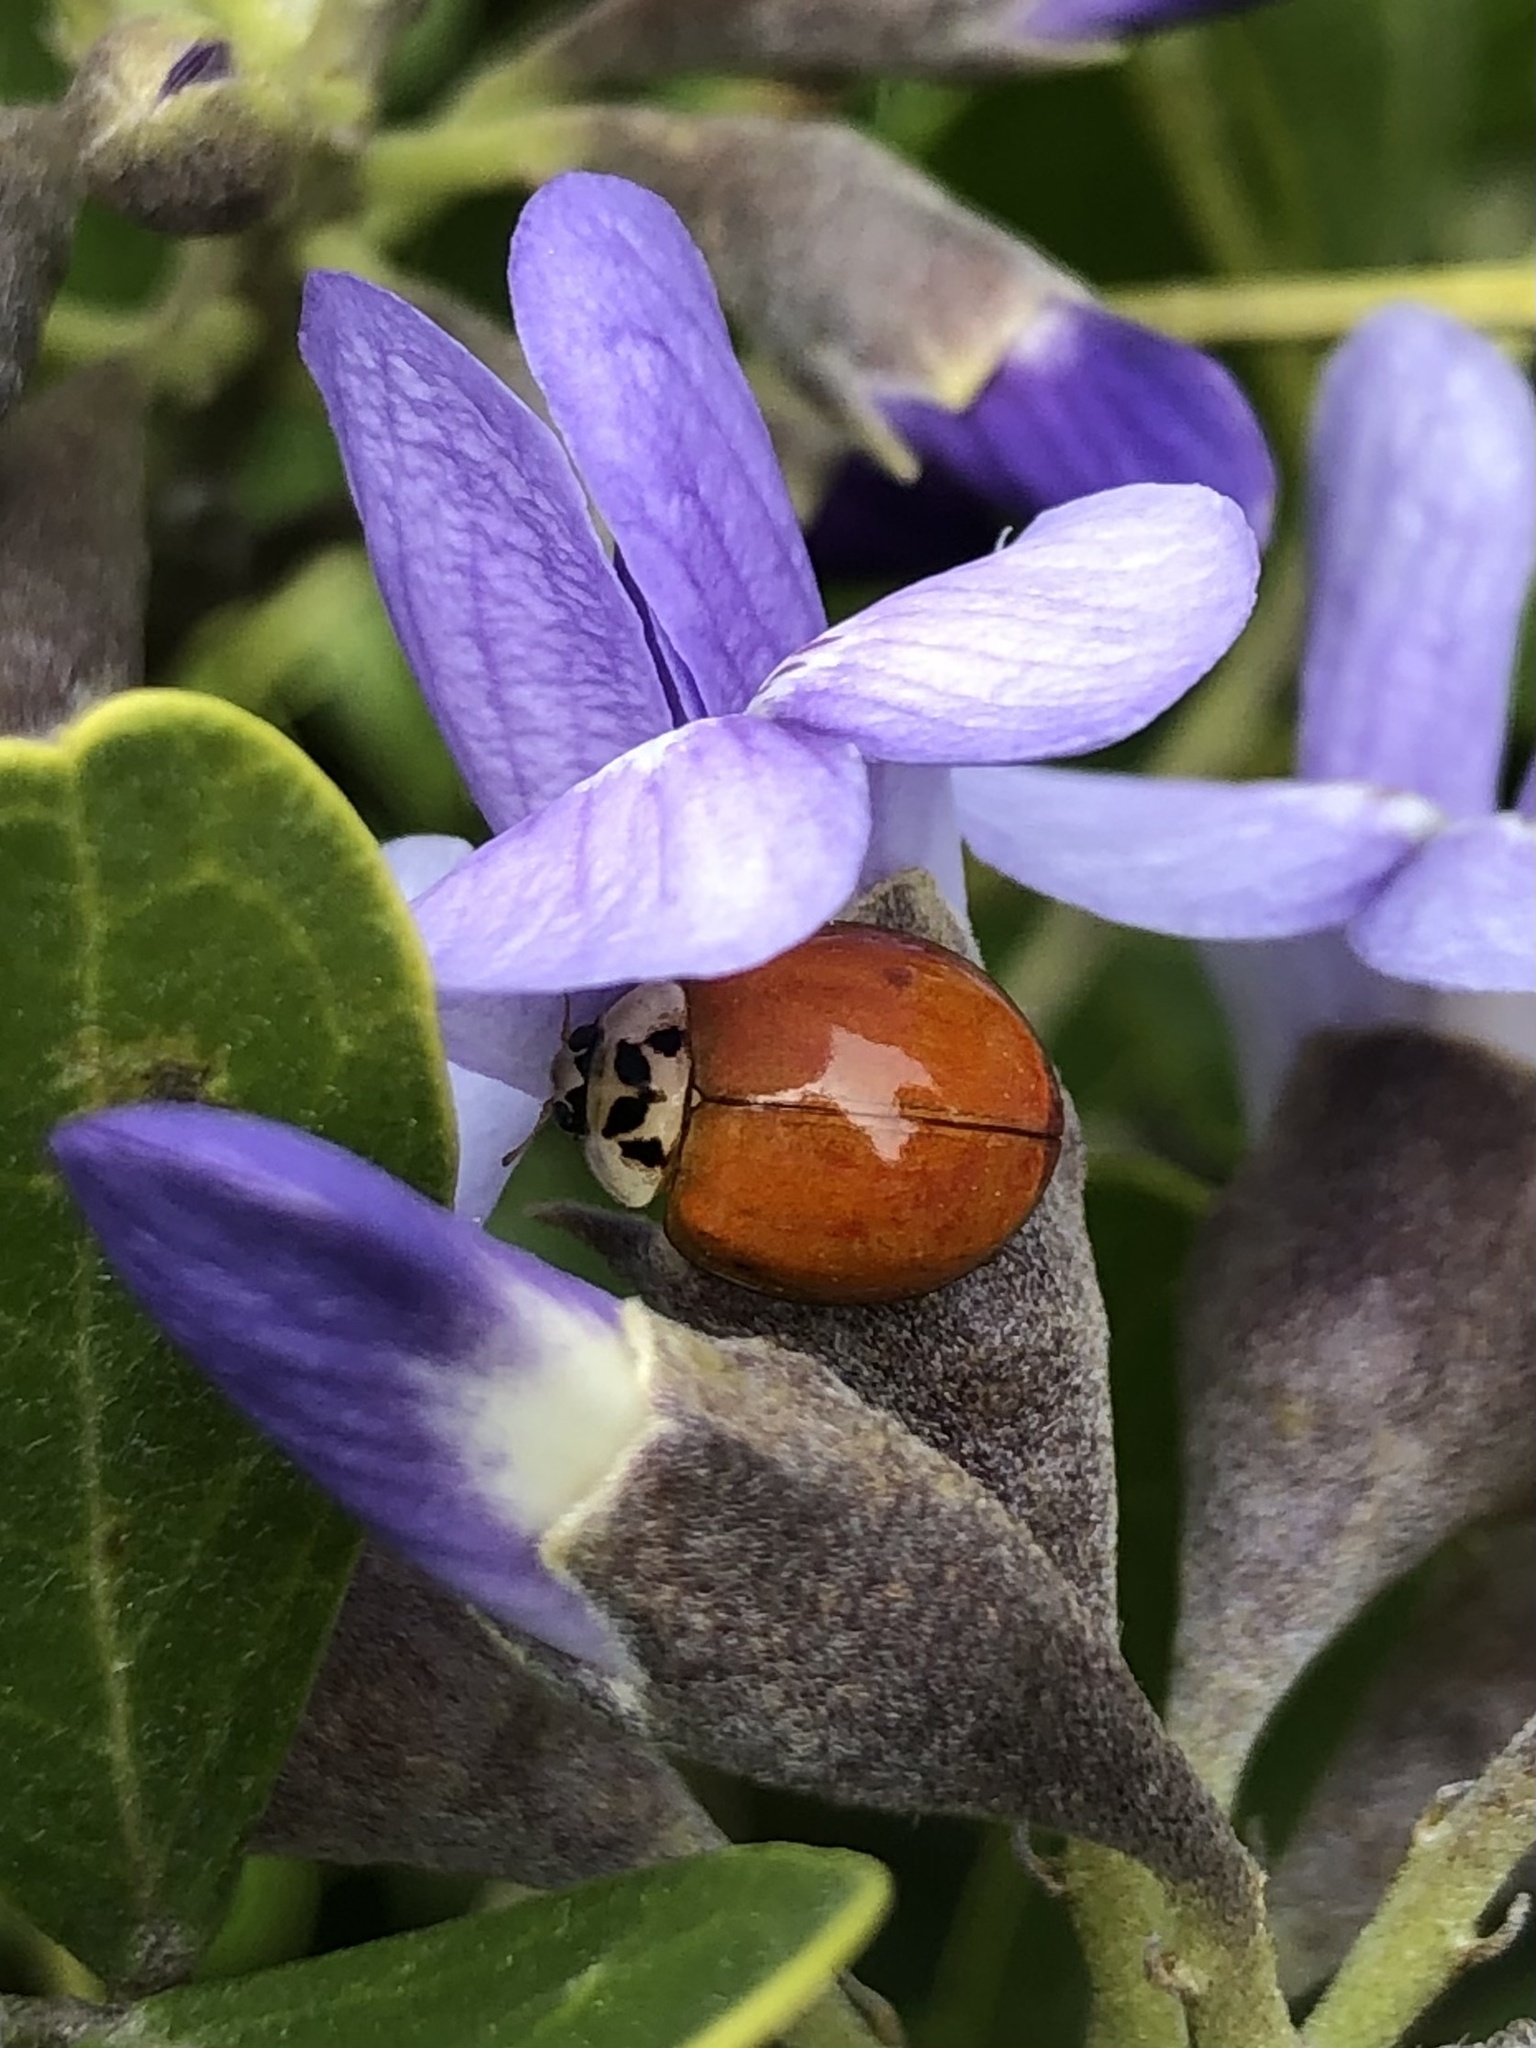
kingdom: Animalia
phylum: Arthropoda
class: Insecta
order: Coleoptera
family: Coccinellidae
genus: Harmonia
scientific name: Harmonia axyridis
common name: Harlequin ladybird
